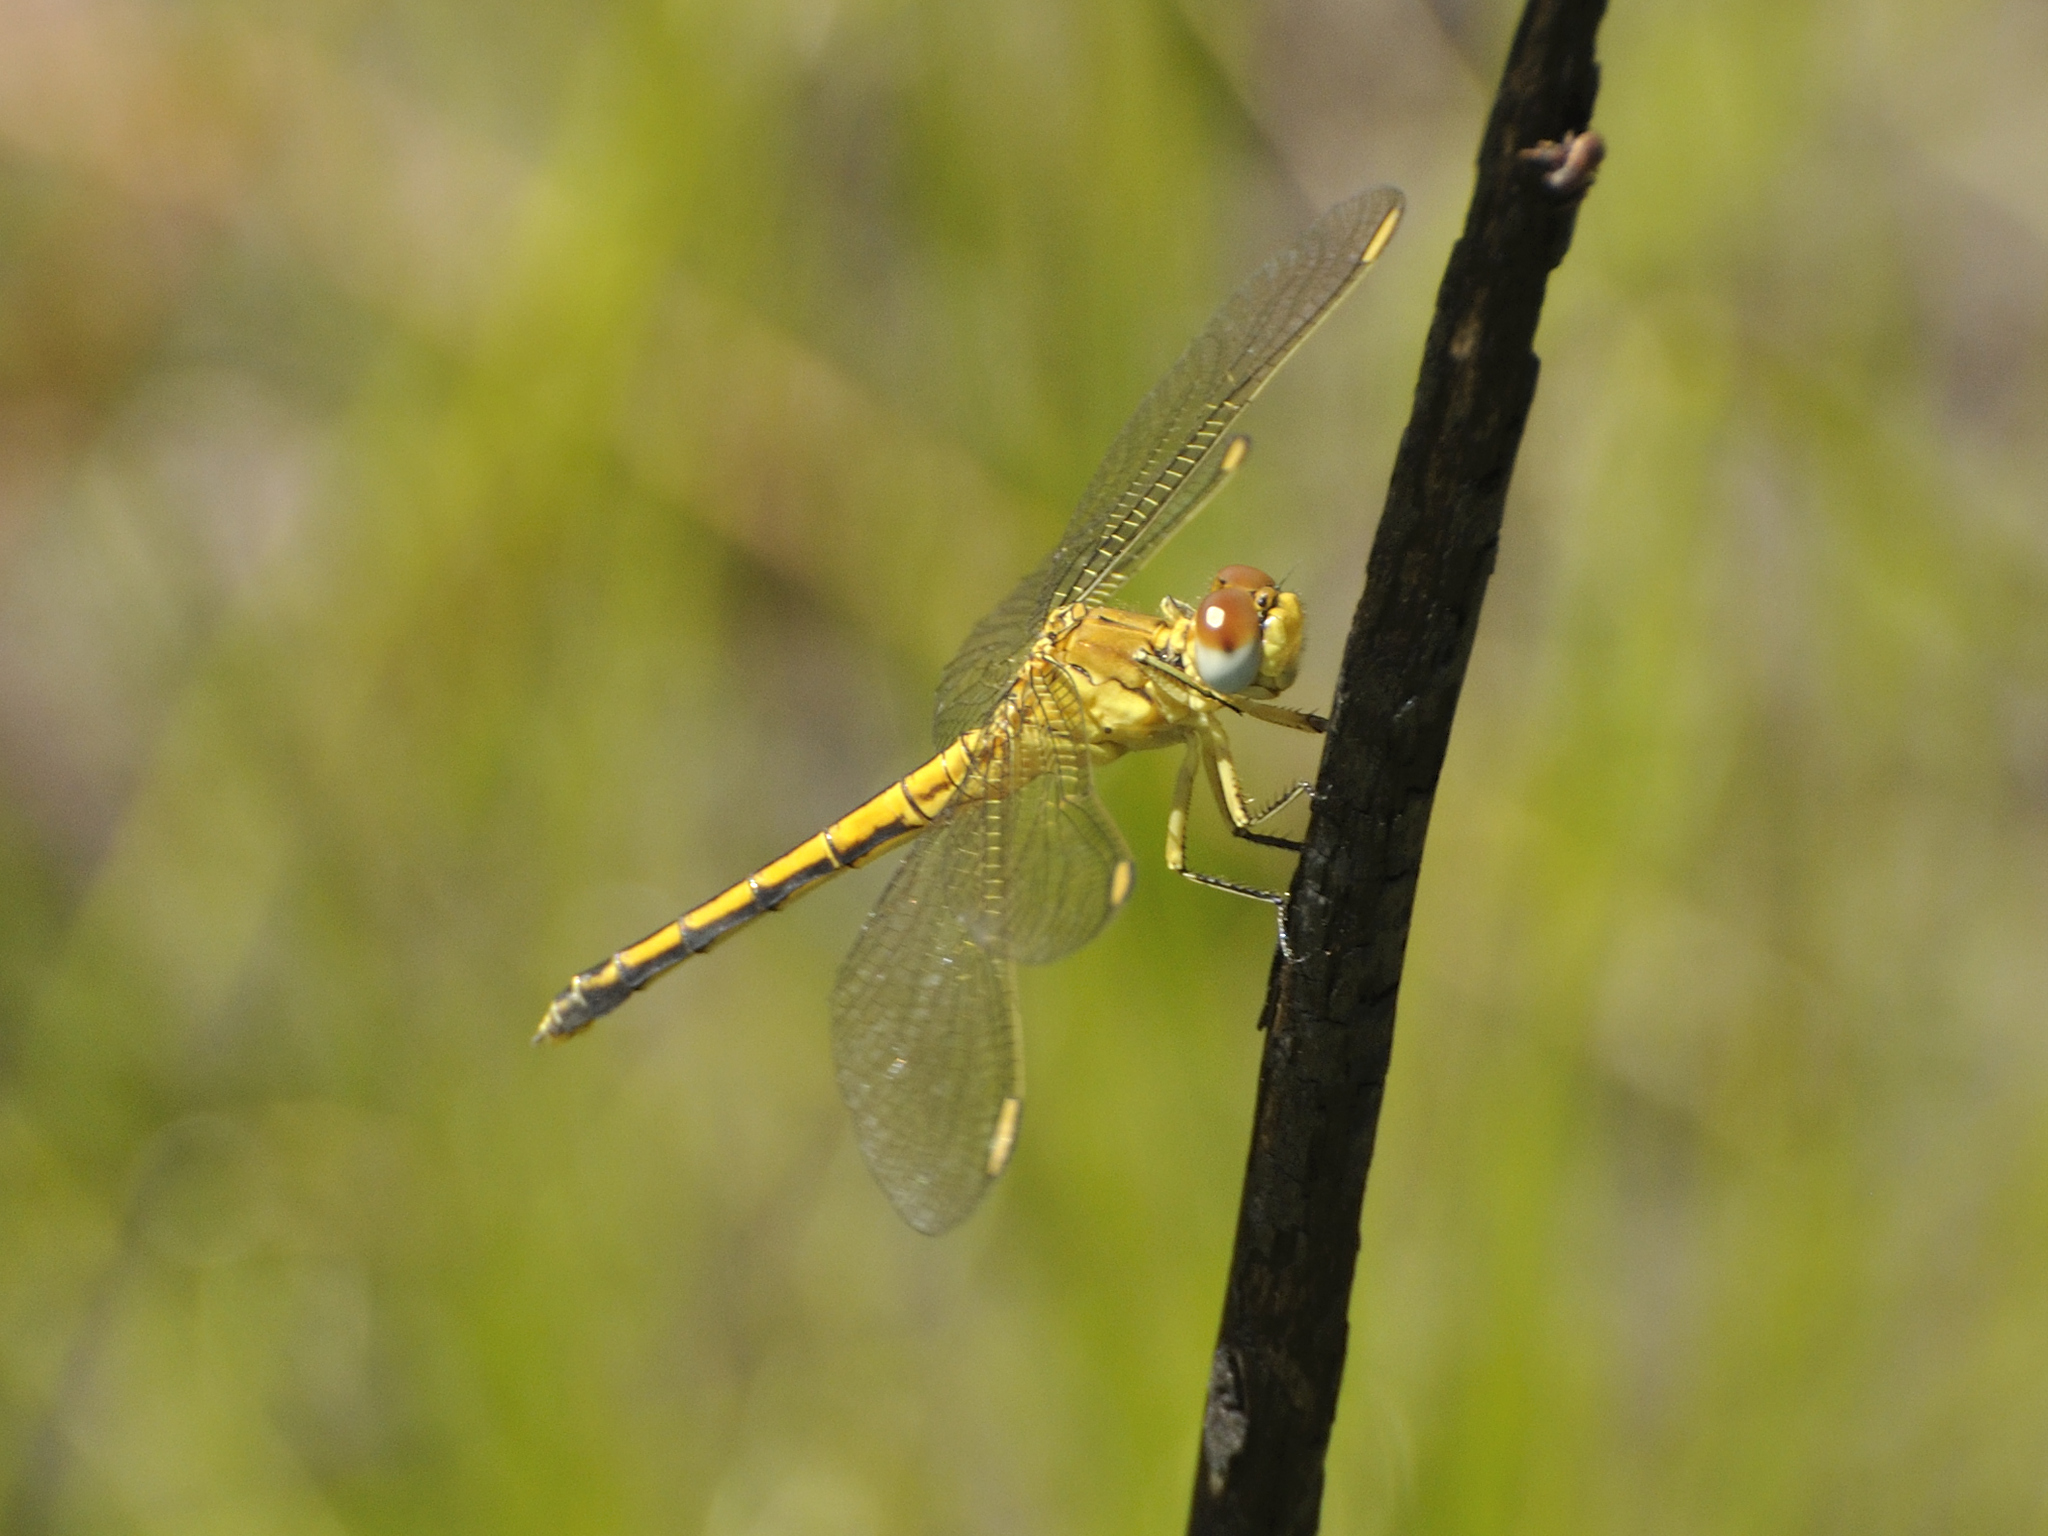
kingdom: Animalia
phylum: Arthropoda
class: Insecta
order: Odonata
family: Libellulidae
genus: Orthetrum
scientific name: Orthetrum abbotti
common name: Abbott's skimmer
